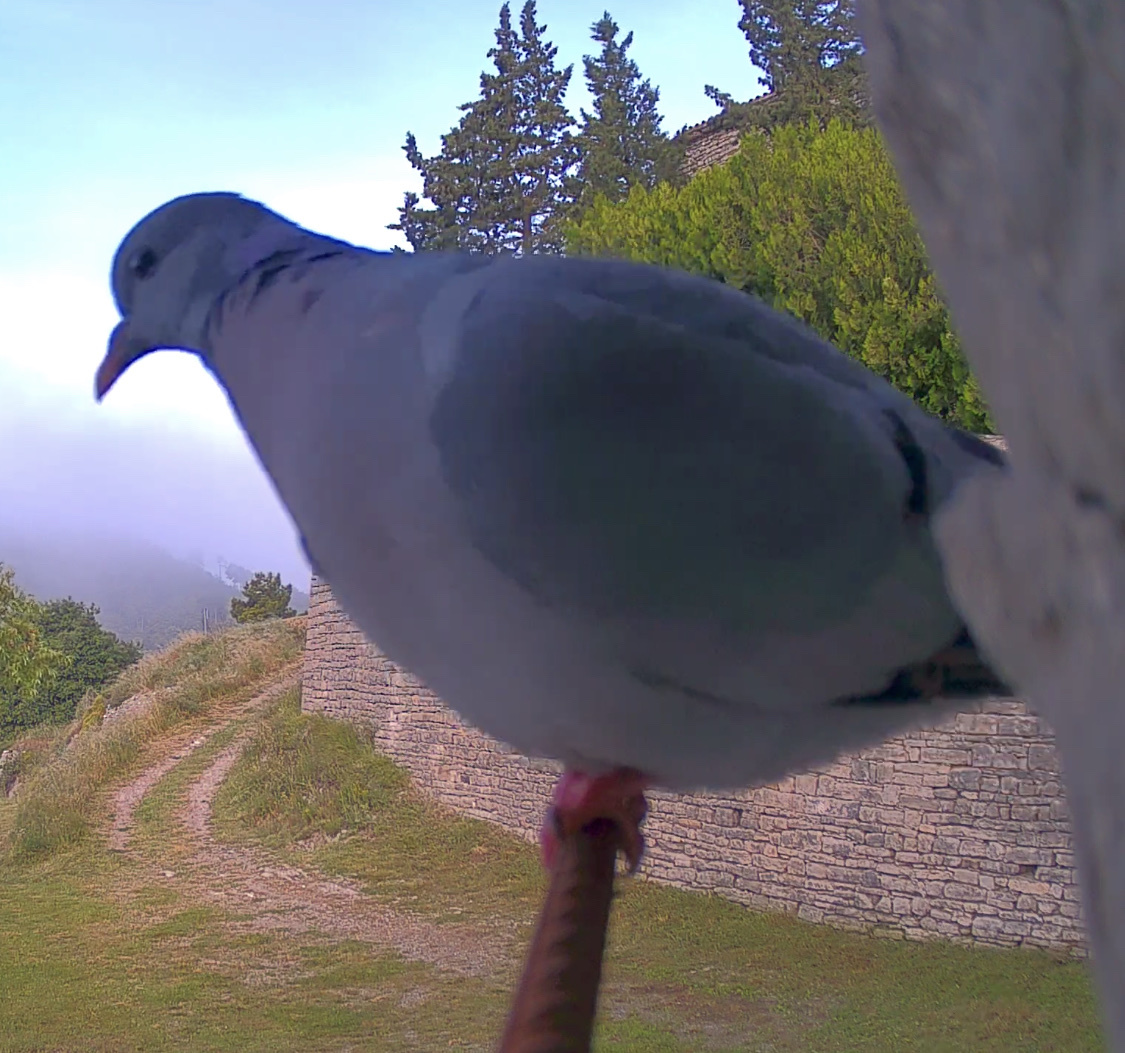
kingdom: Animalia
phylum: Chordata
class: Aves
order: Columbiformes
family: Columbidae
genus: Columba
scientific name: Columba oenas
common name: Stock dove
